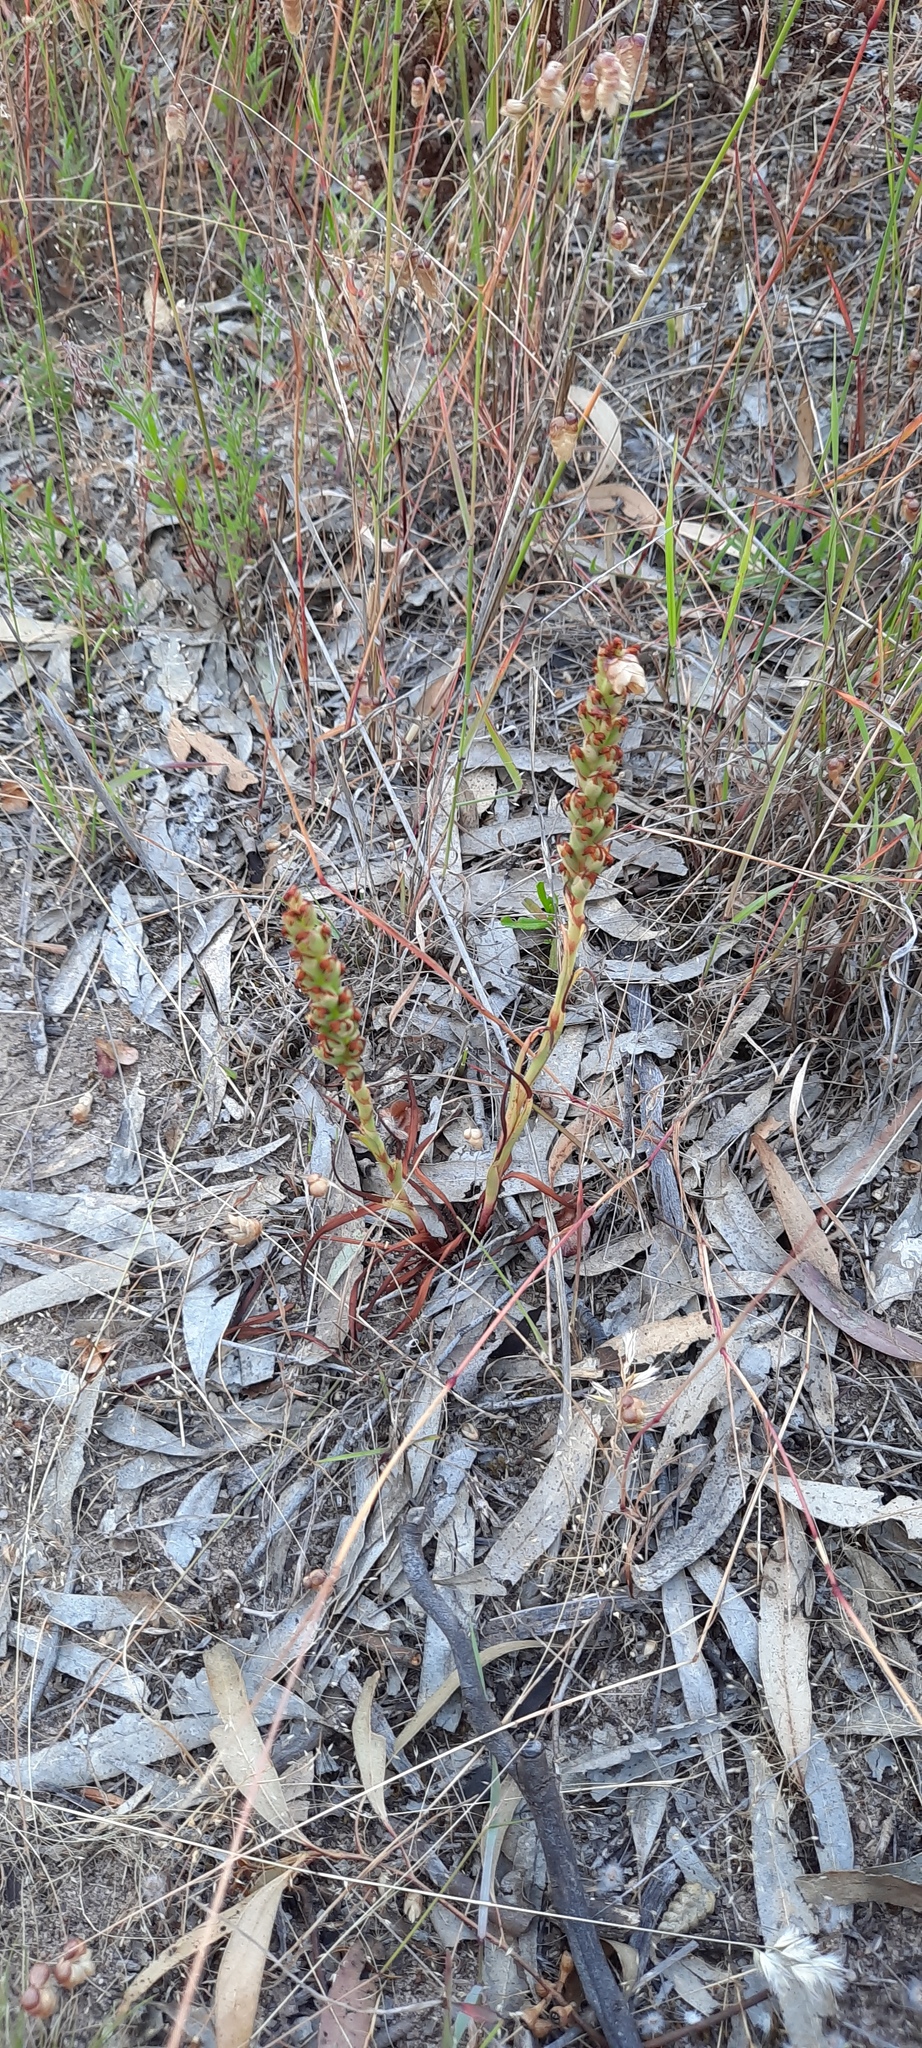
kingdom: Plantae
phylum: Tracheophyta
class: Liliopsida
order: Asparagales
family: Orchidaceae
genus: Disa
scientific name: Disa bracteata
